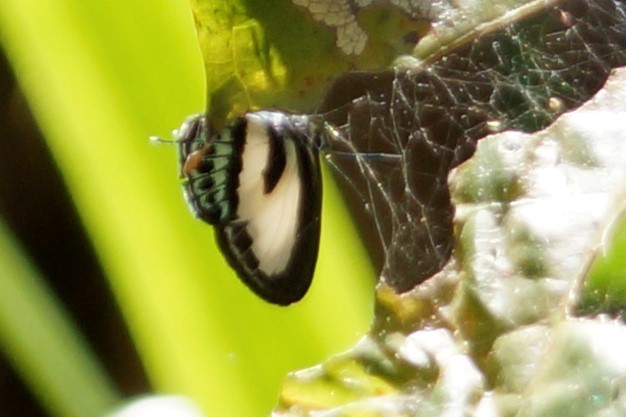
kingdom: Animalia
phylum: Arthropoda
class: Insecta
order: Lepidoptera
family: Lycaenidae
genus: Nacaduba
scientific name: Nacaduba cyanea
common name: Tailed green-banded line blue
